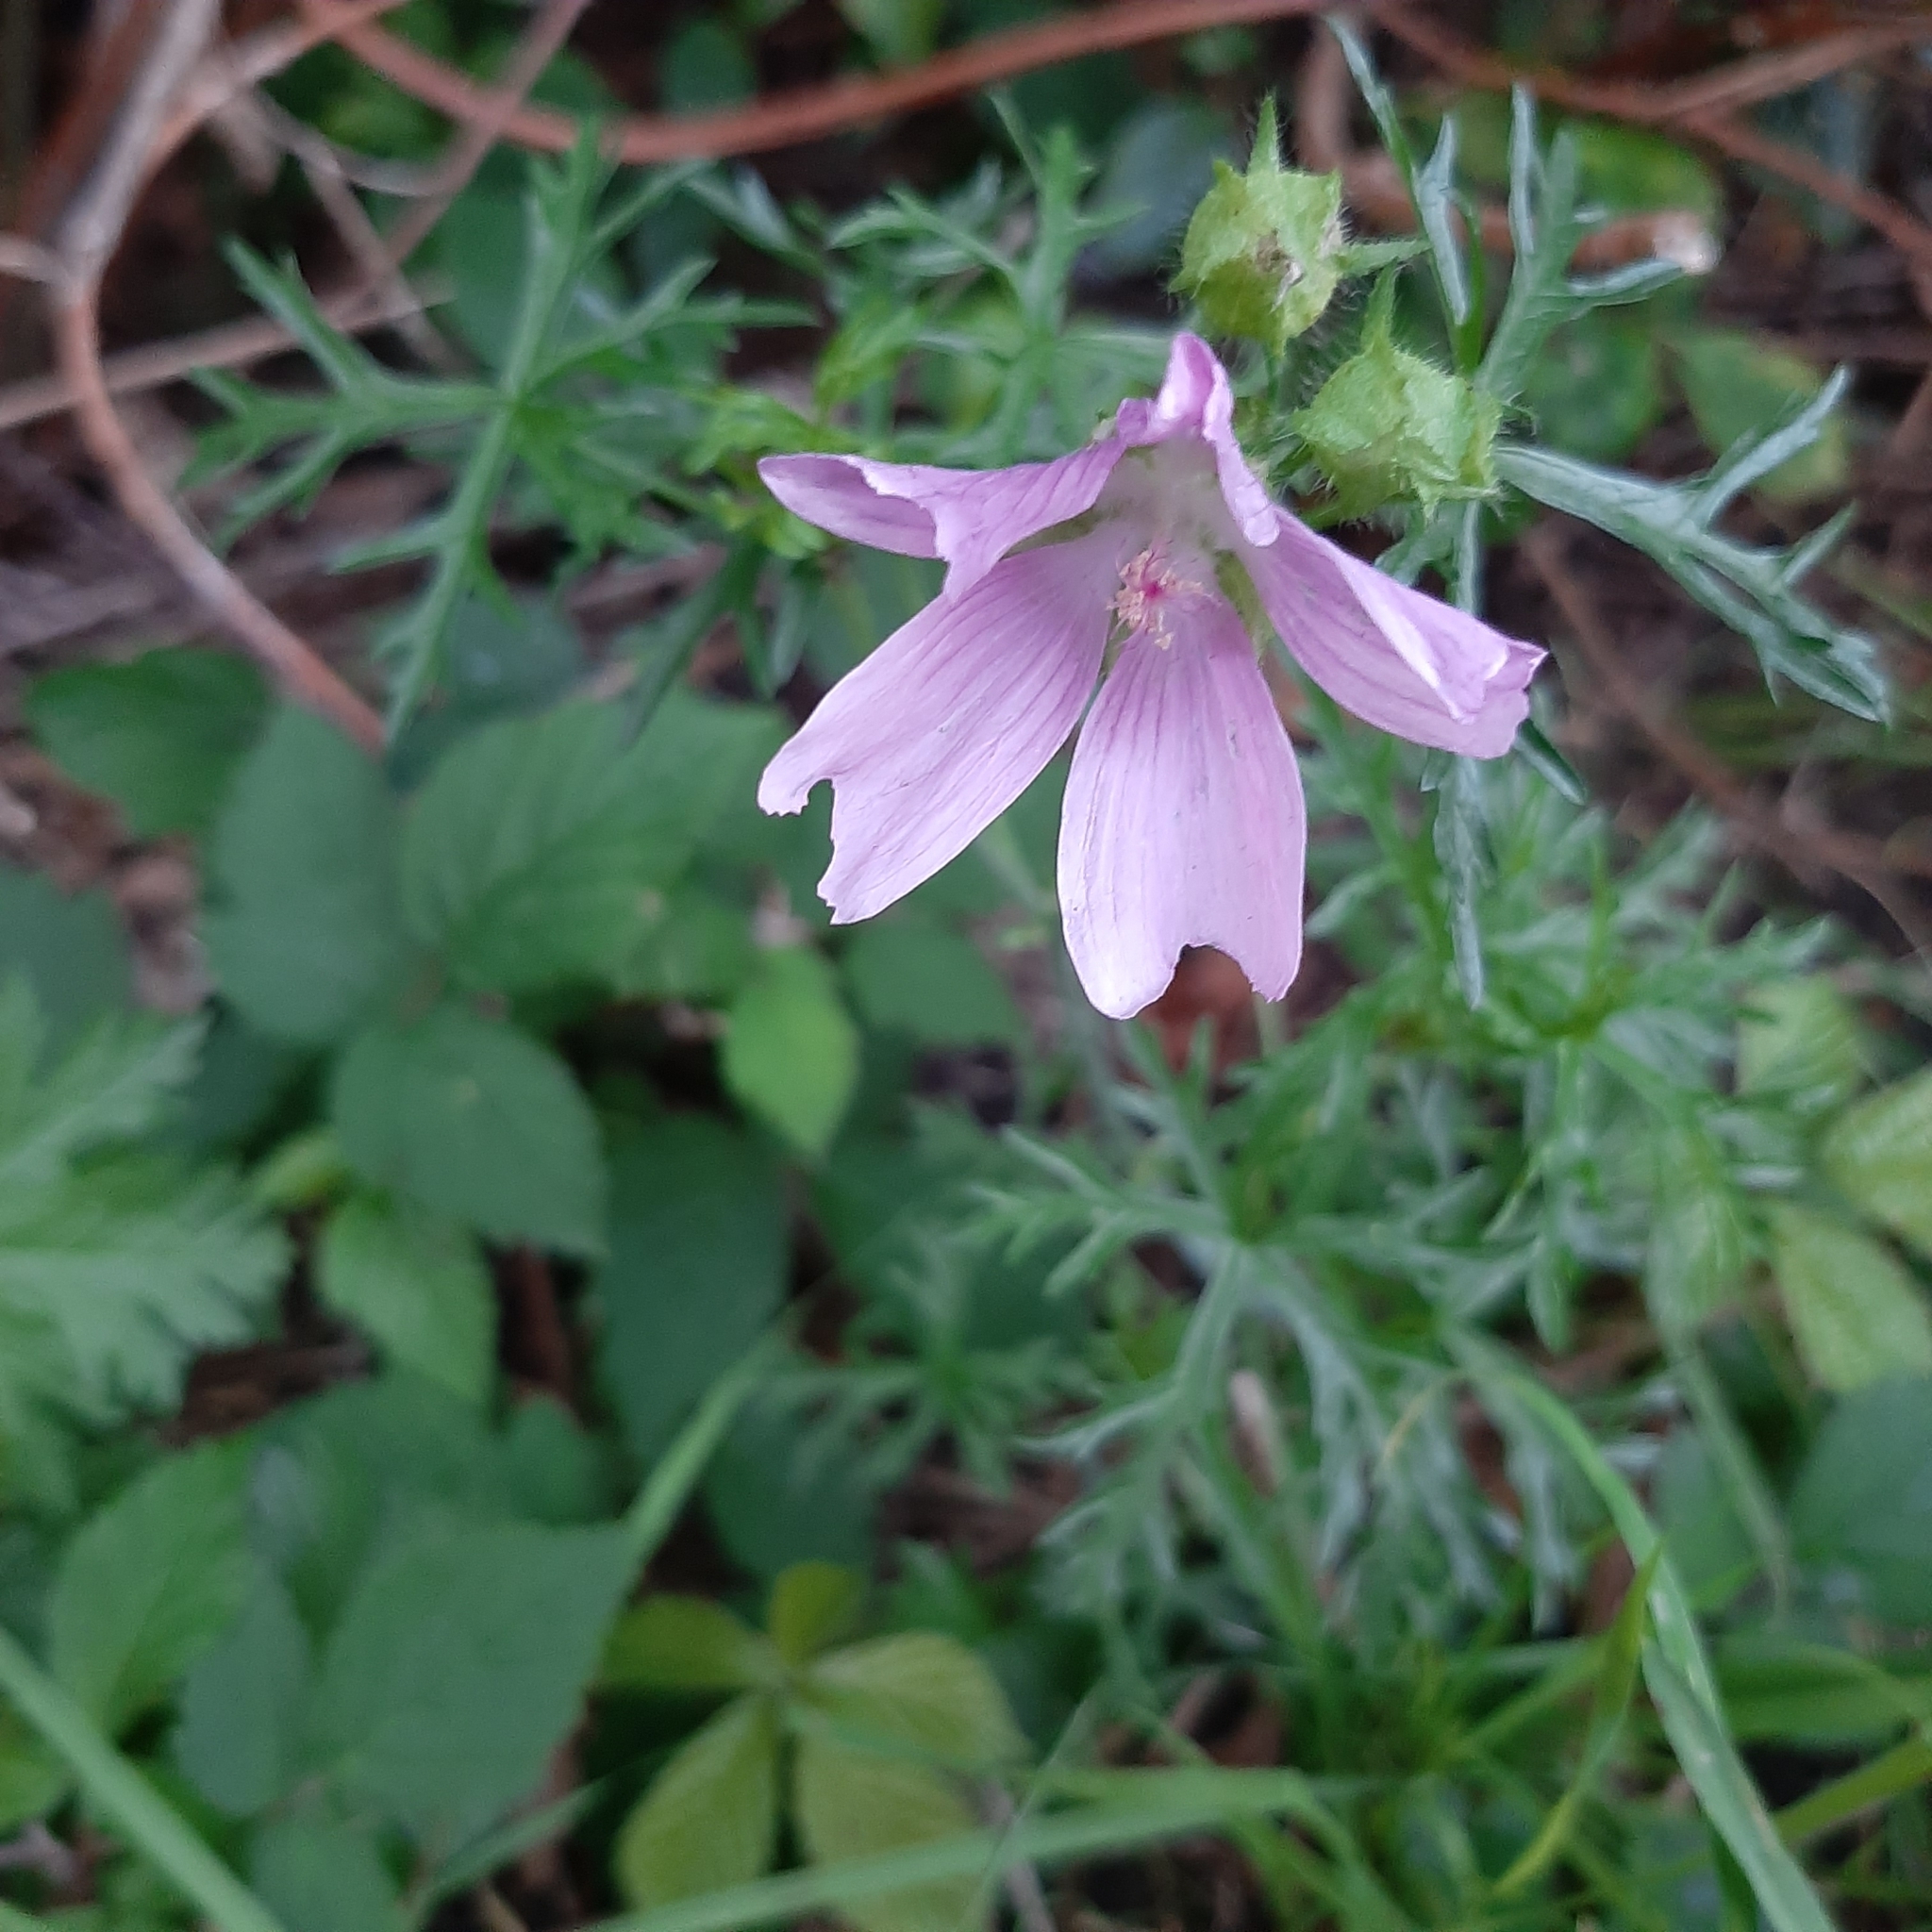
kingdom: Plantae
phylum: Tracheophyta
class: Magnoliopsida
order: Malvales
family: Malvaceae
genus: Malva
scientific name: Malva moschata
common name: Musk mallow
